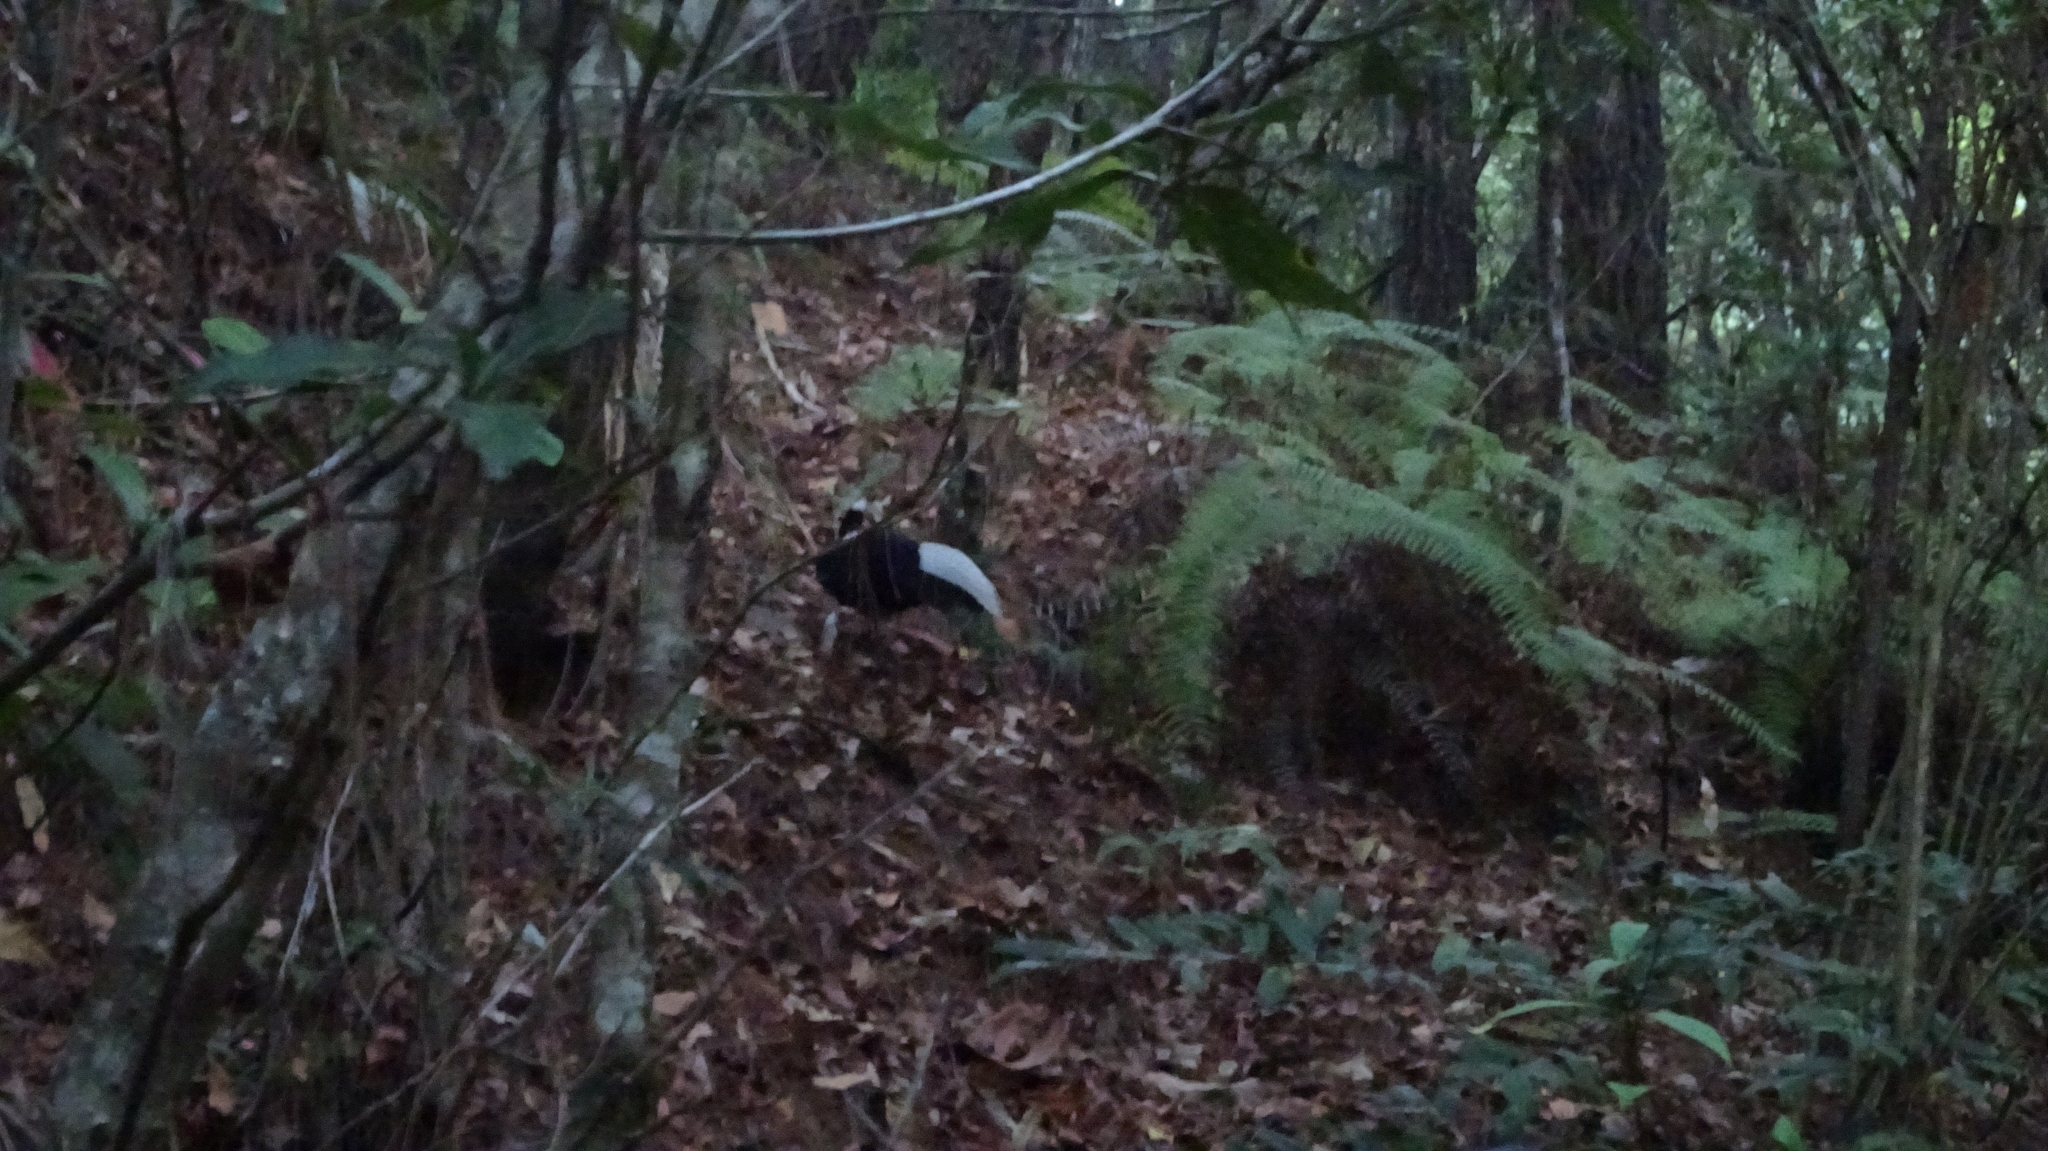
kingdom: Animalia
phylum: Chordata
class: Aves
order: Galliformes
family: Phasianidae
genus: Lophura
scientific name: Lophura swinhoii
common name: Swinhoe's pheasant
